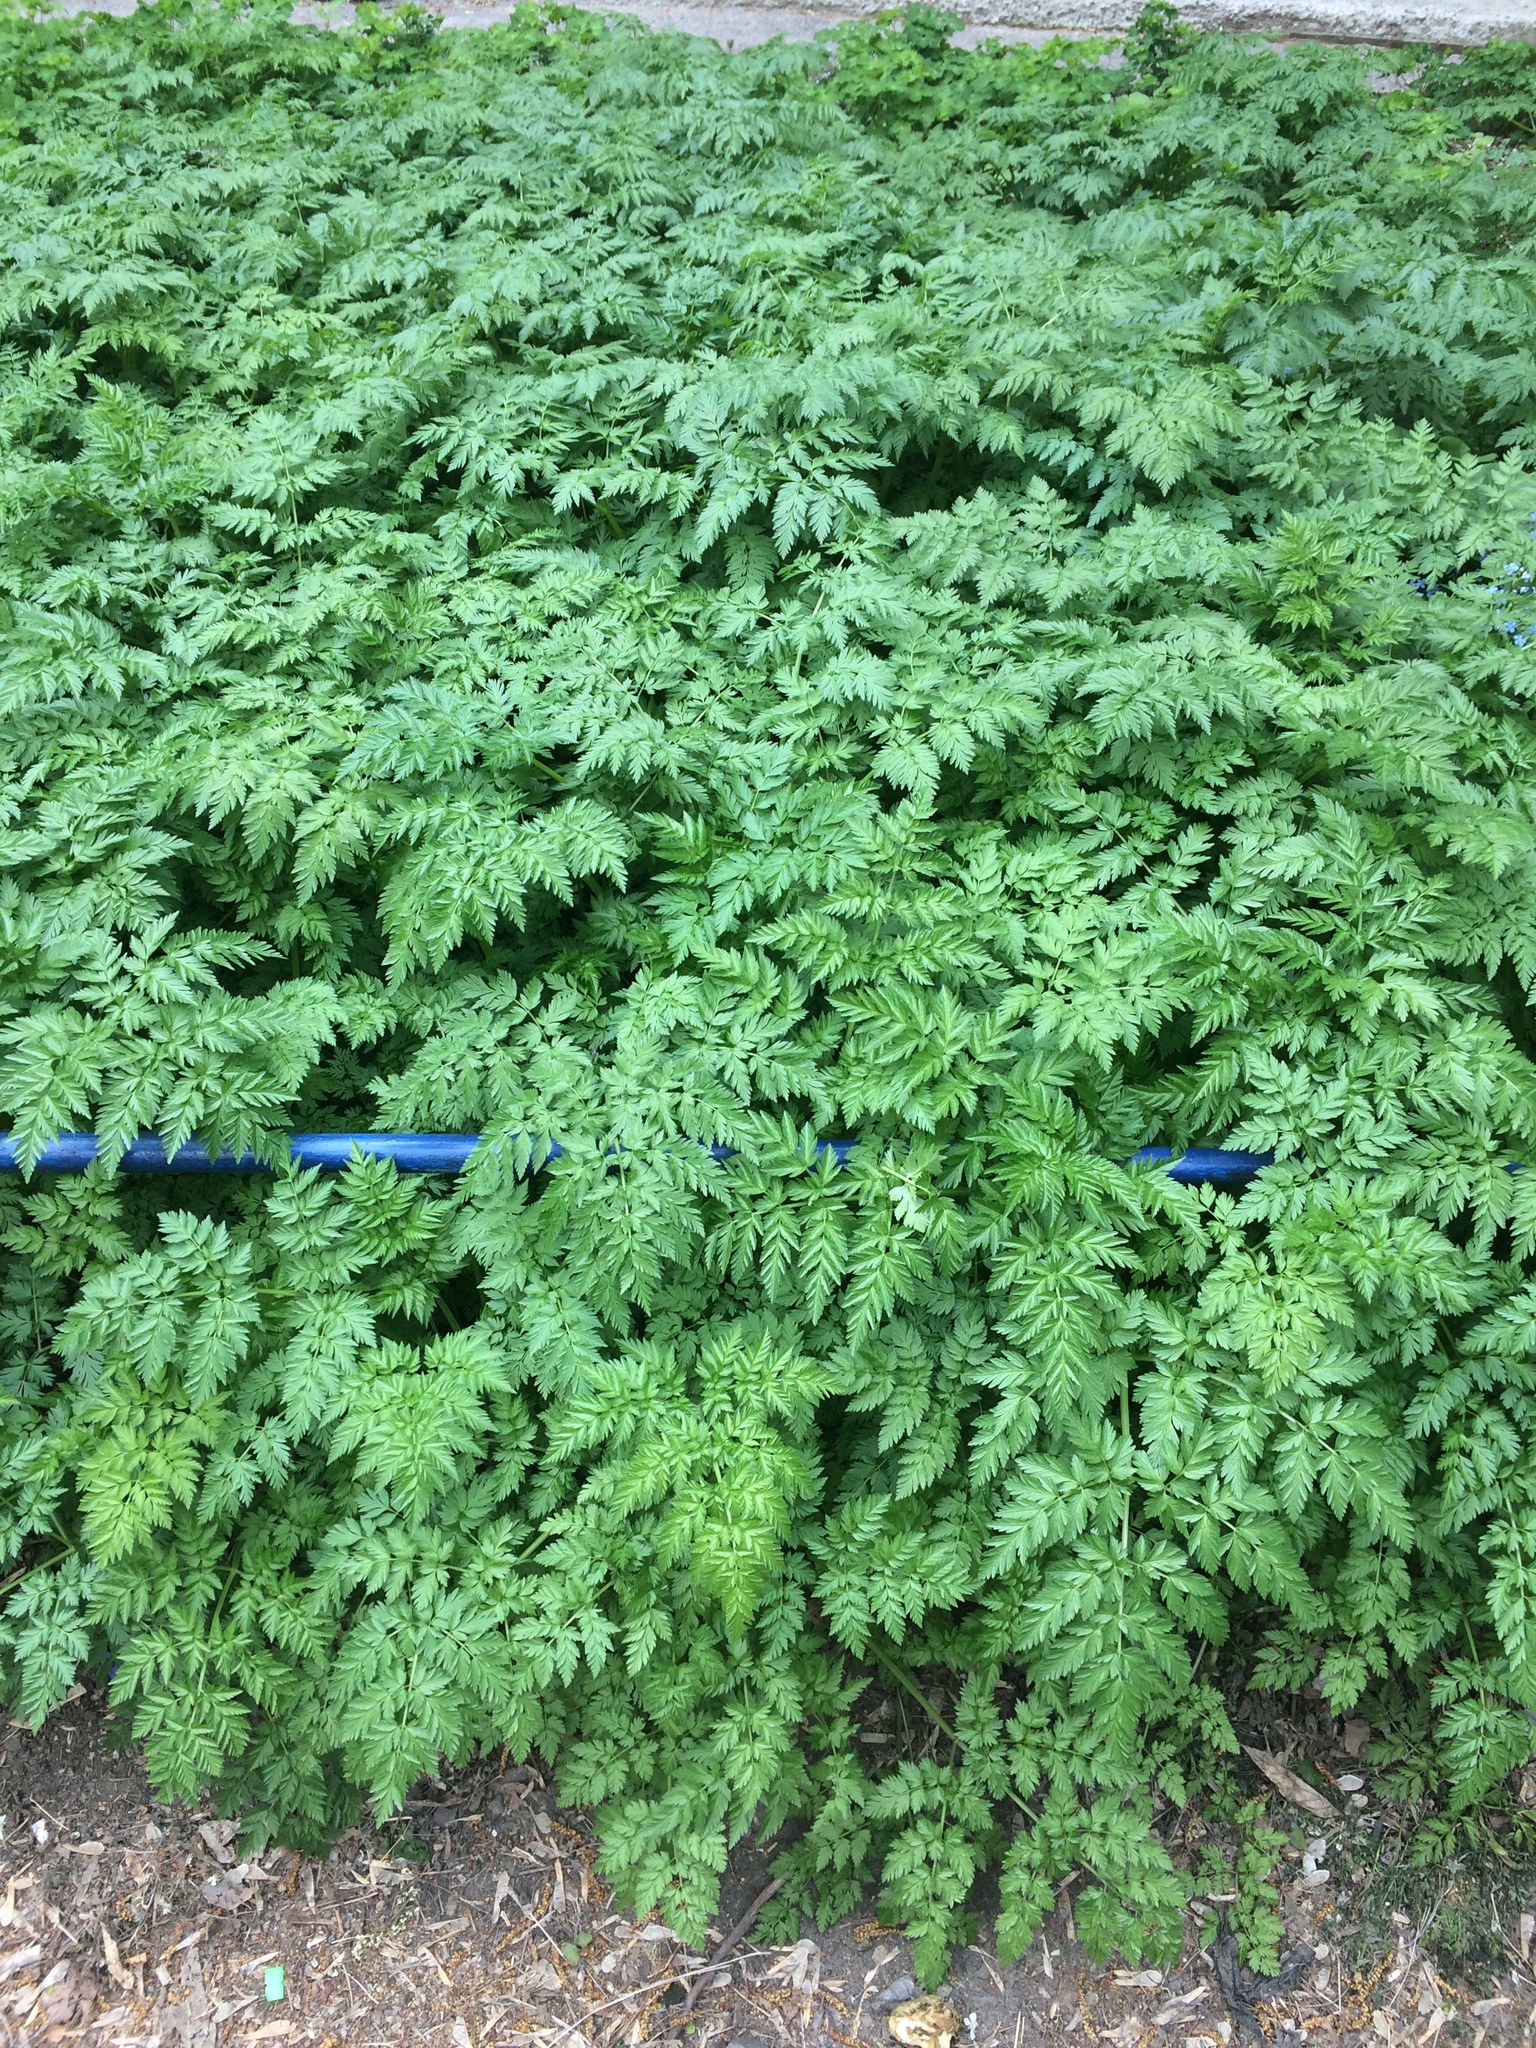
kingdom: Plantae
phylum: Tracheophyta
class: Magnoliopsida
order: Apiales
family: Apiaceae
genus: Anthriscus
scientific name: Anthriscus sylvestris
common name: Cow parsley
